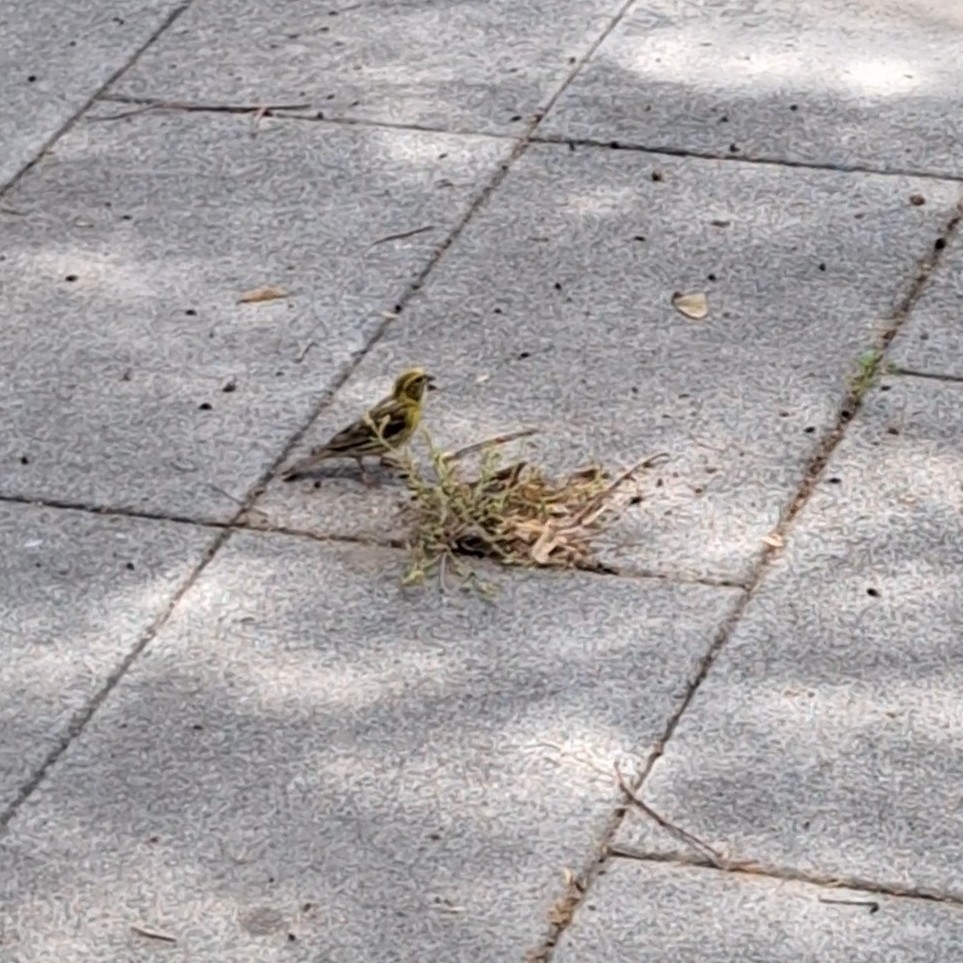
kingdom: Animalia
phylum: Chordata
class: Aves
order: Passeriformes
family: Fringillidae
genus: Serinus
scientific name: Serinus serinus
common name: European serin
